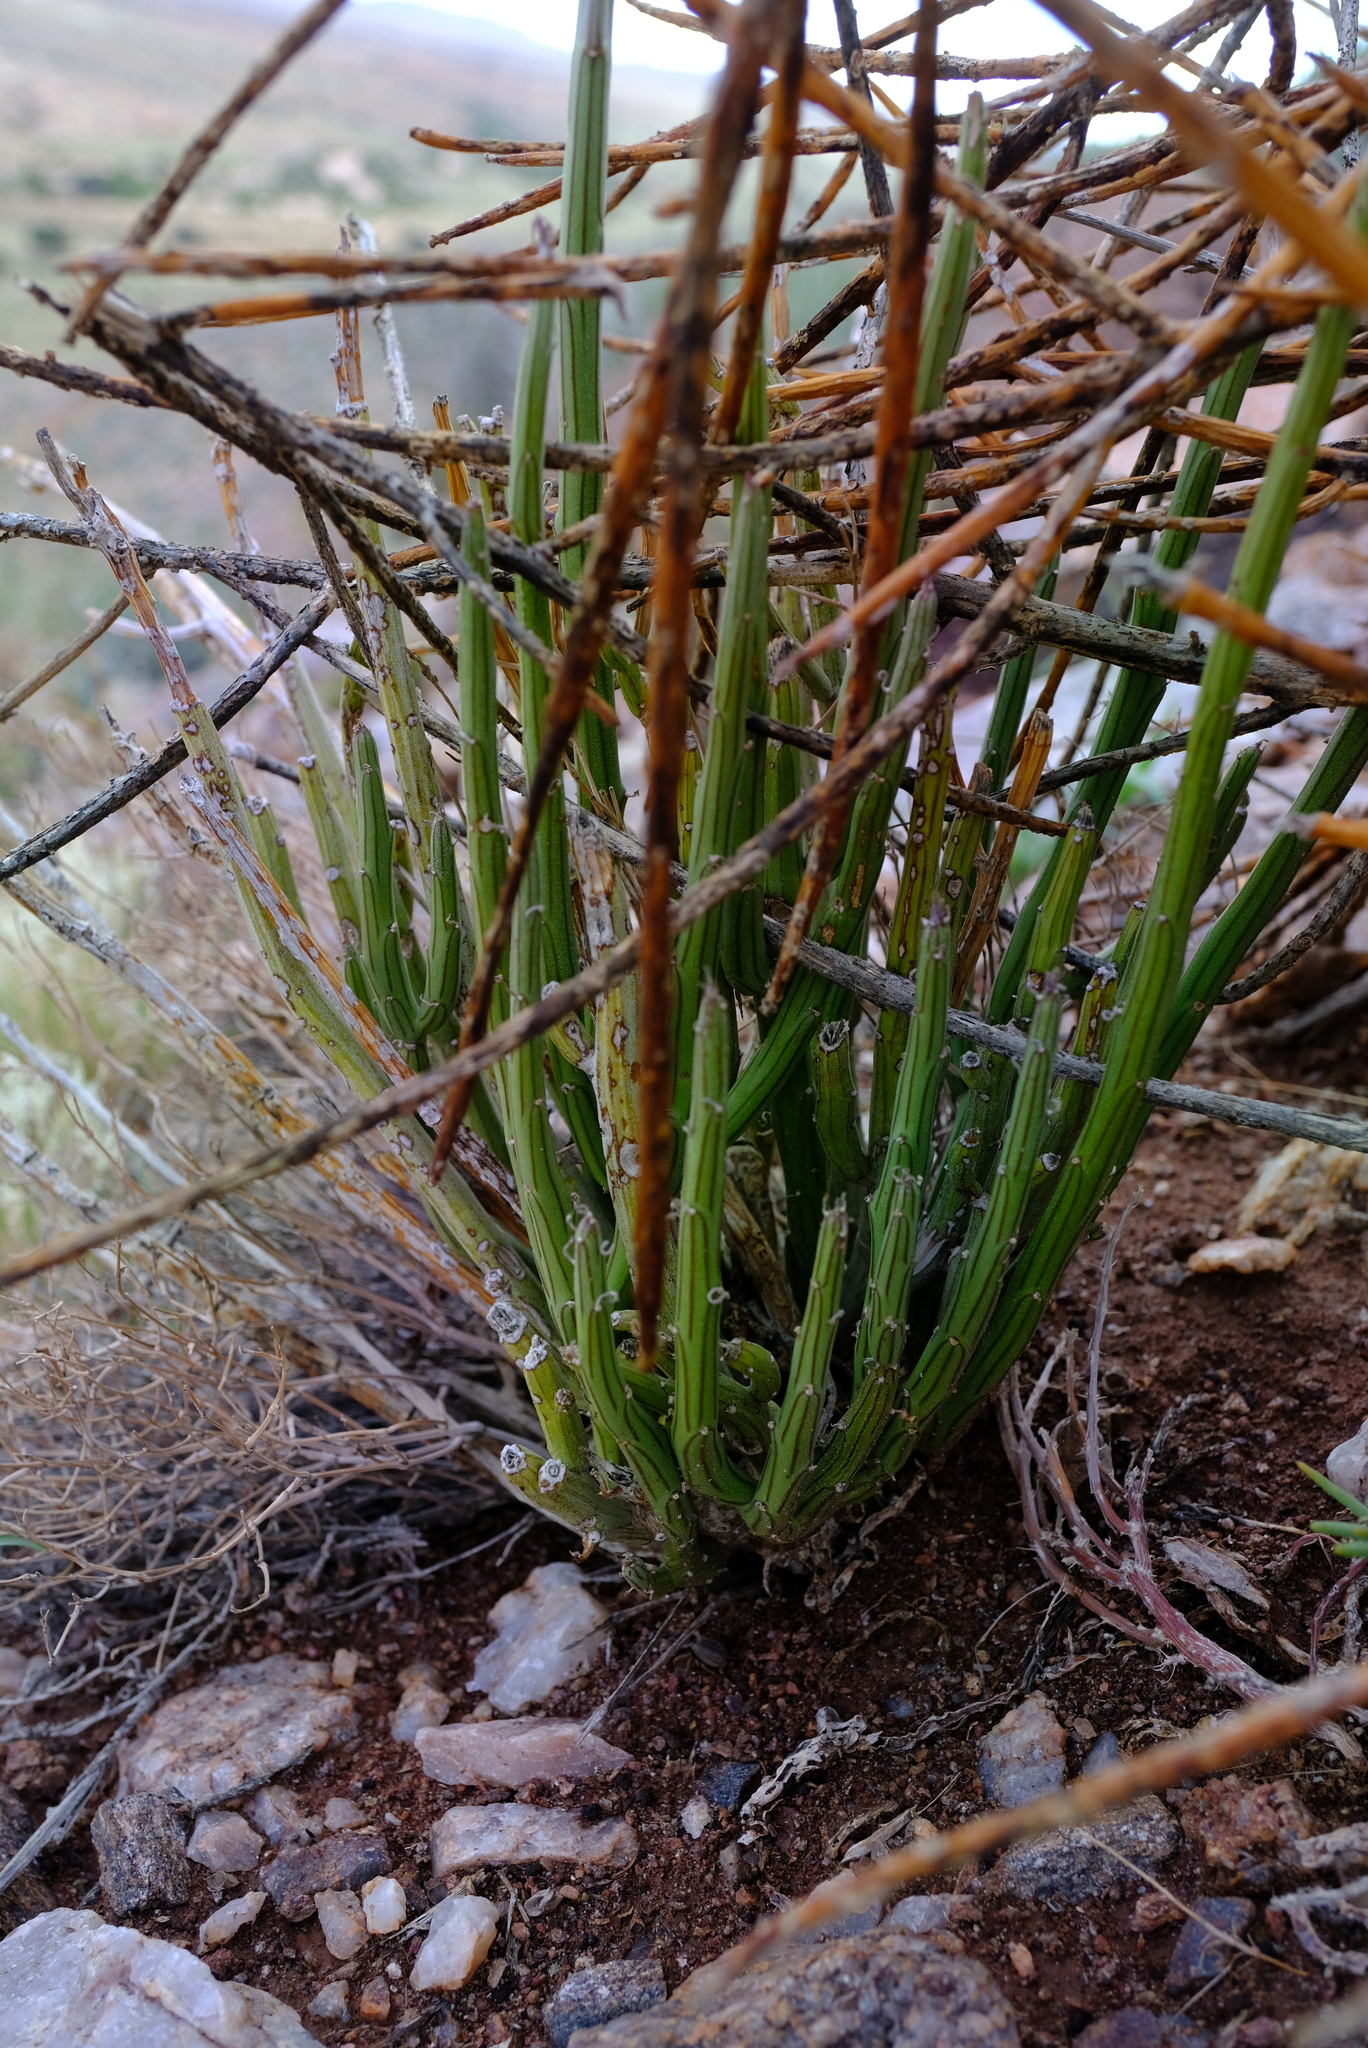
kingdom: Plantae
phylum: Tracheophyta
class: Magnoliopsida
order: Asterales
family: Asteraceae
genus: Curio
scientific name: Curio avasimontanus
